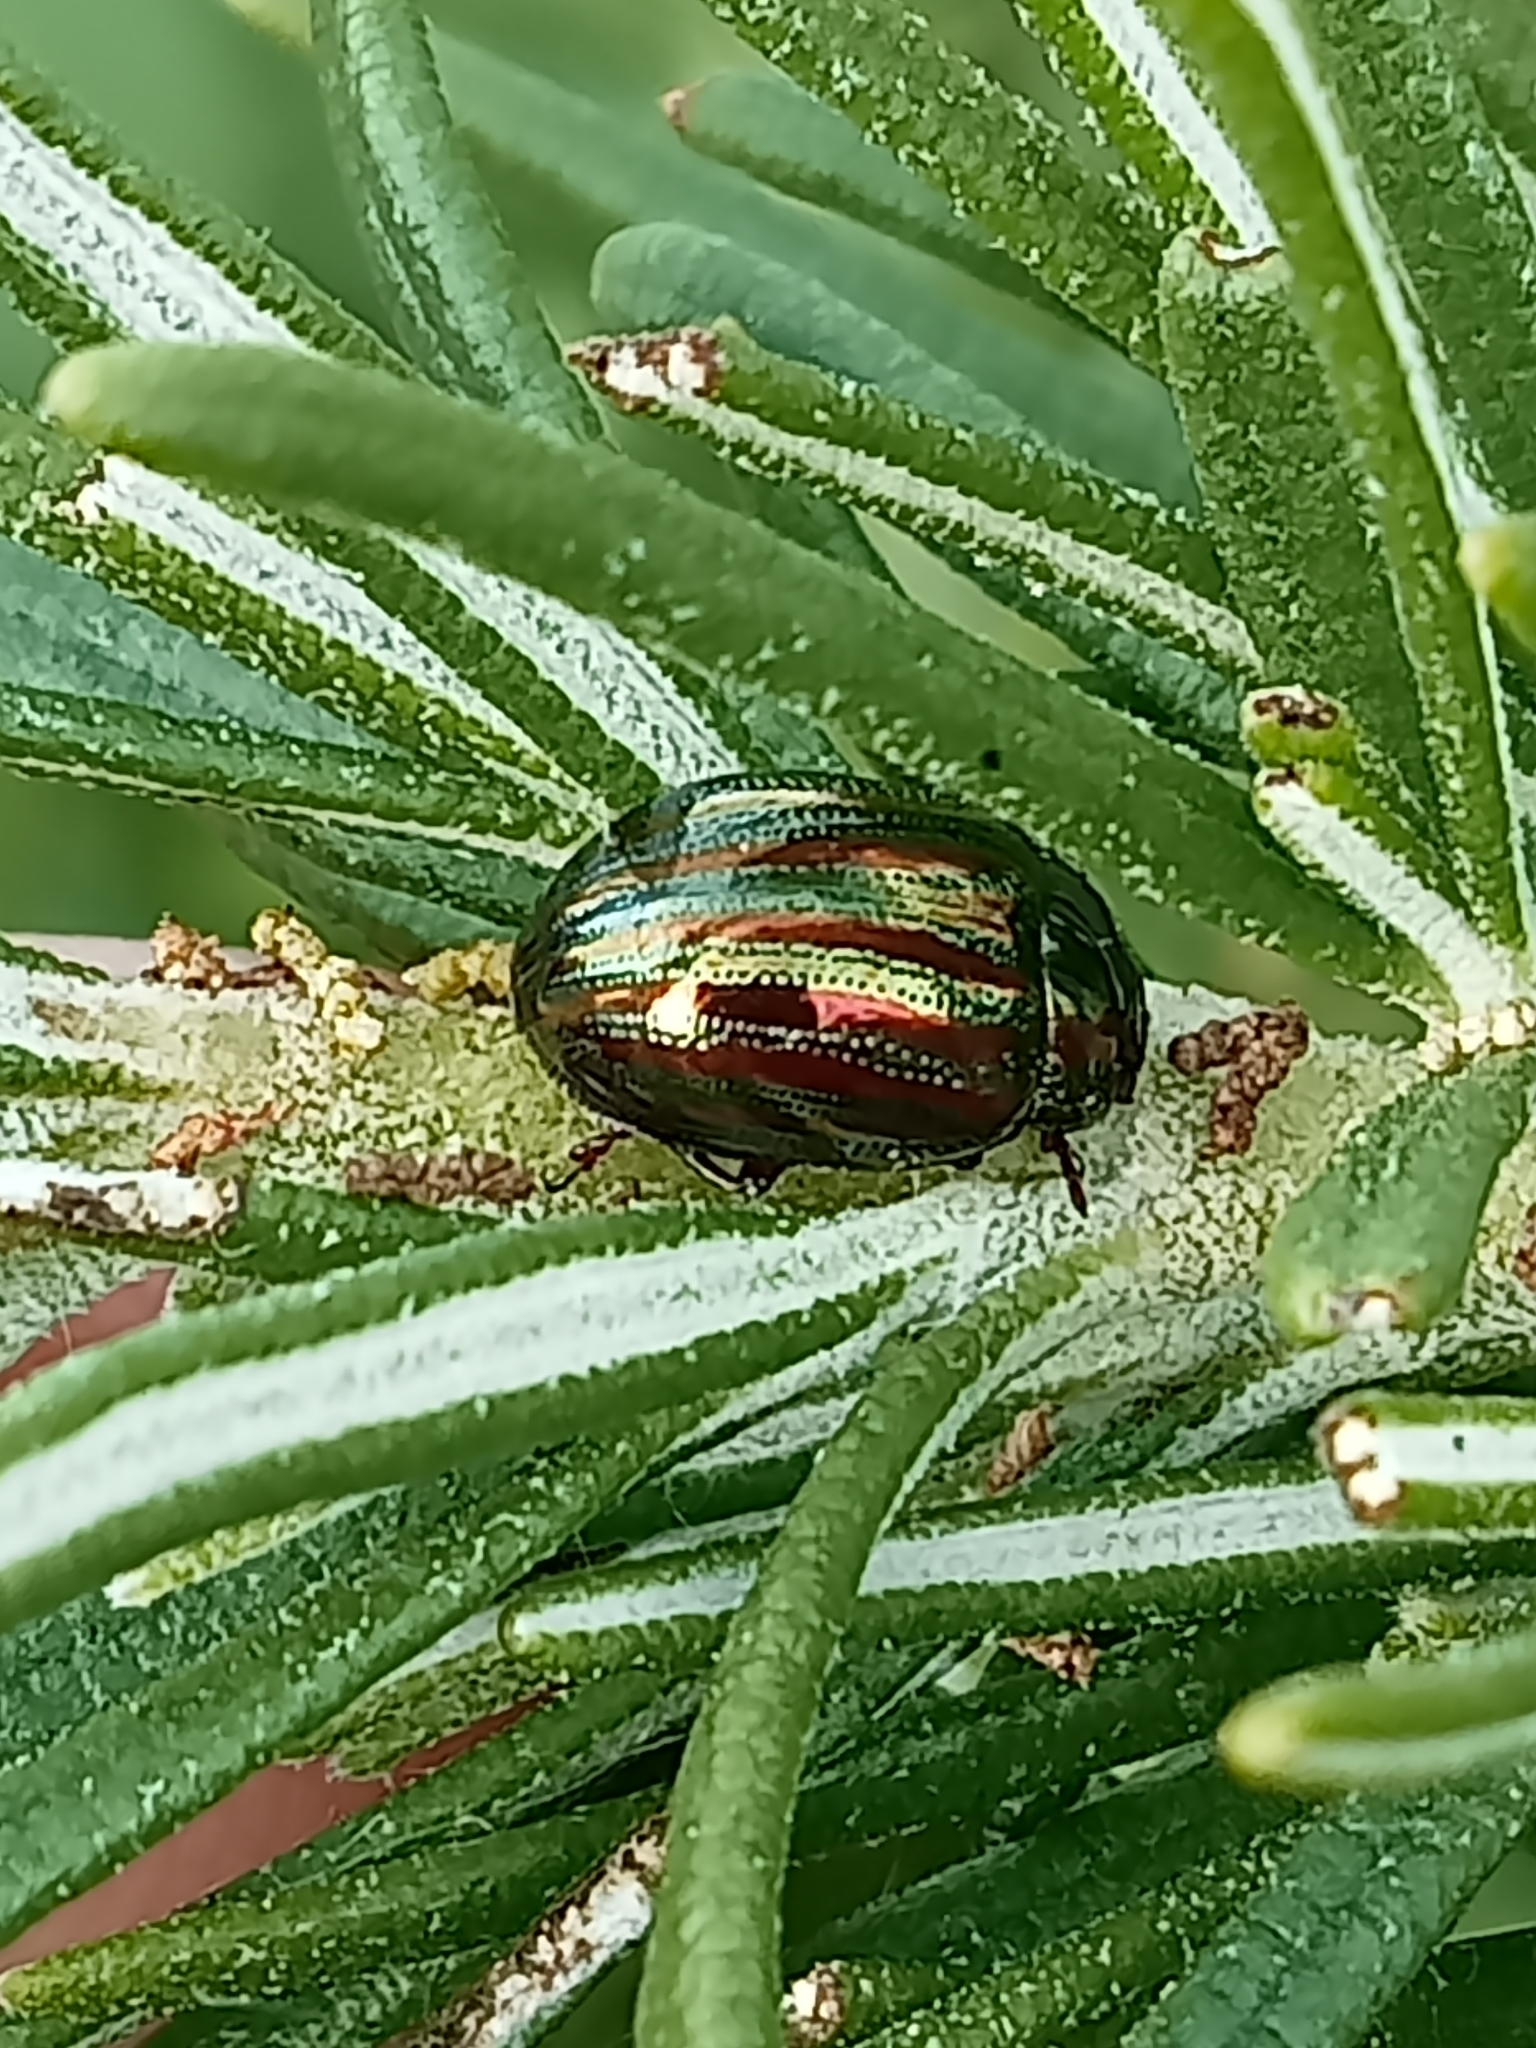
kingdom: Animalia
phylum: Arthropoda
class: Insecta
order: Coleoptera
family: Chrysomelidae
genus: Chrysolina
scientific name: Chrysolina americana
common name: Rosemary beetle
